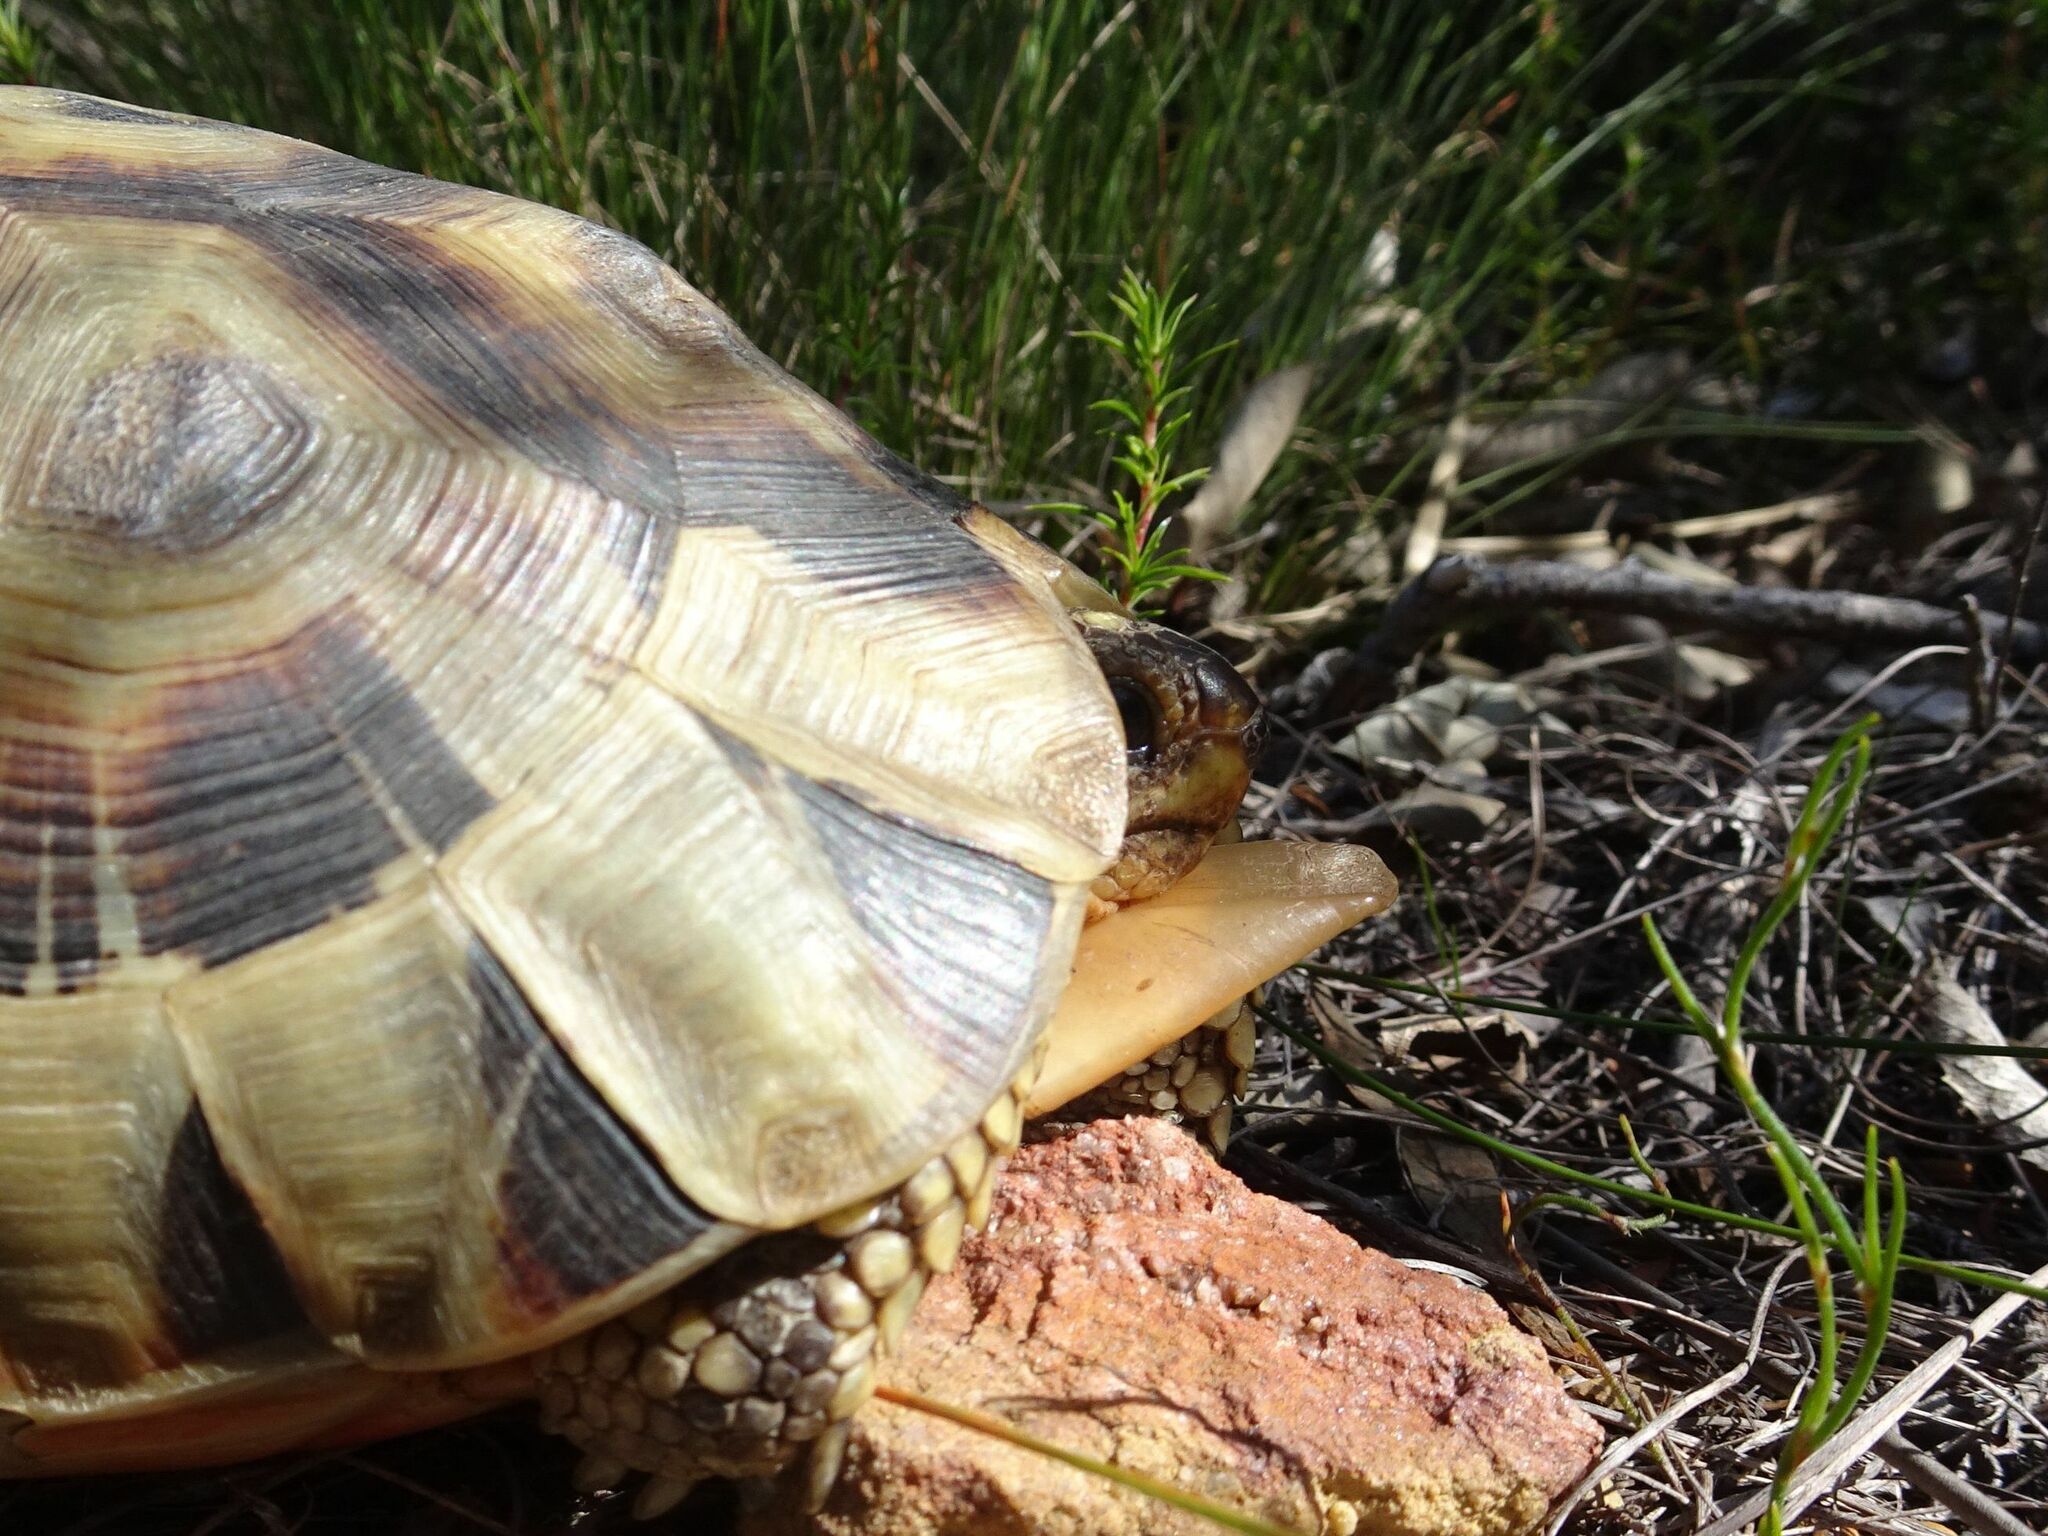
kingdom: Animalia
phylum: Chordata
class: Testudines
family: Testudinidae
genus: Chersina
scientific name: Chersina angulata
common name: South african bowsprit tortoise
